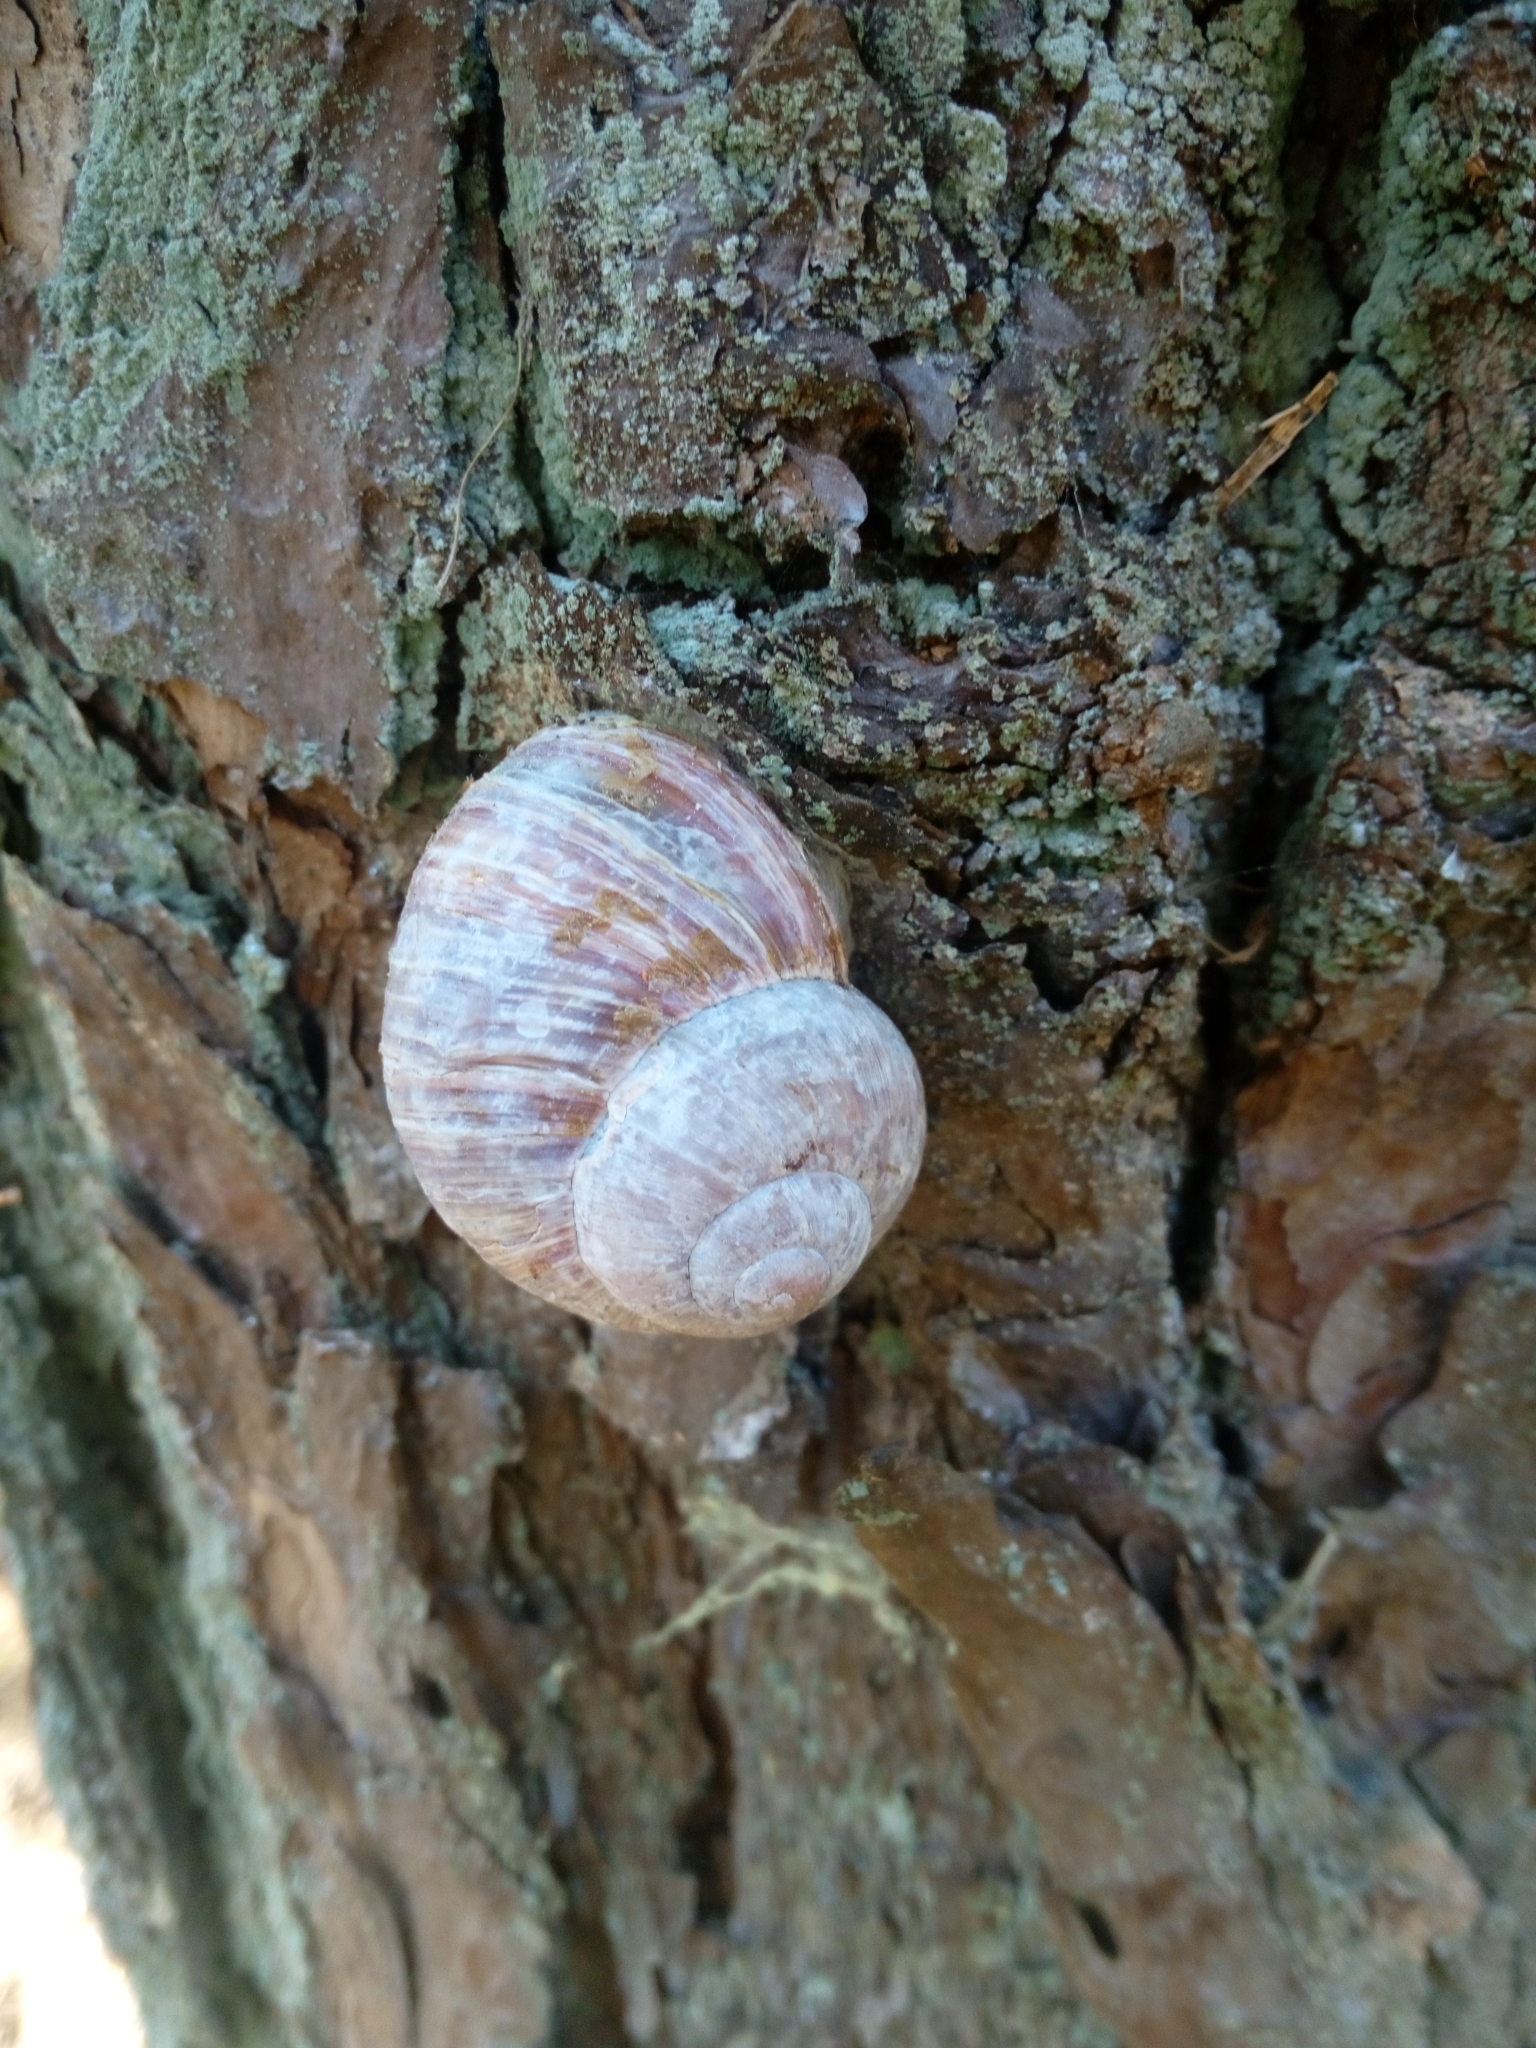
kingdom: Animalia
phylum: Mollusca
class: Gastropoda
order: Stylommatophora
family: Helicidae
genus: Helix
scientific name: Helix pomatia
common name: Roman snail
